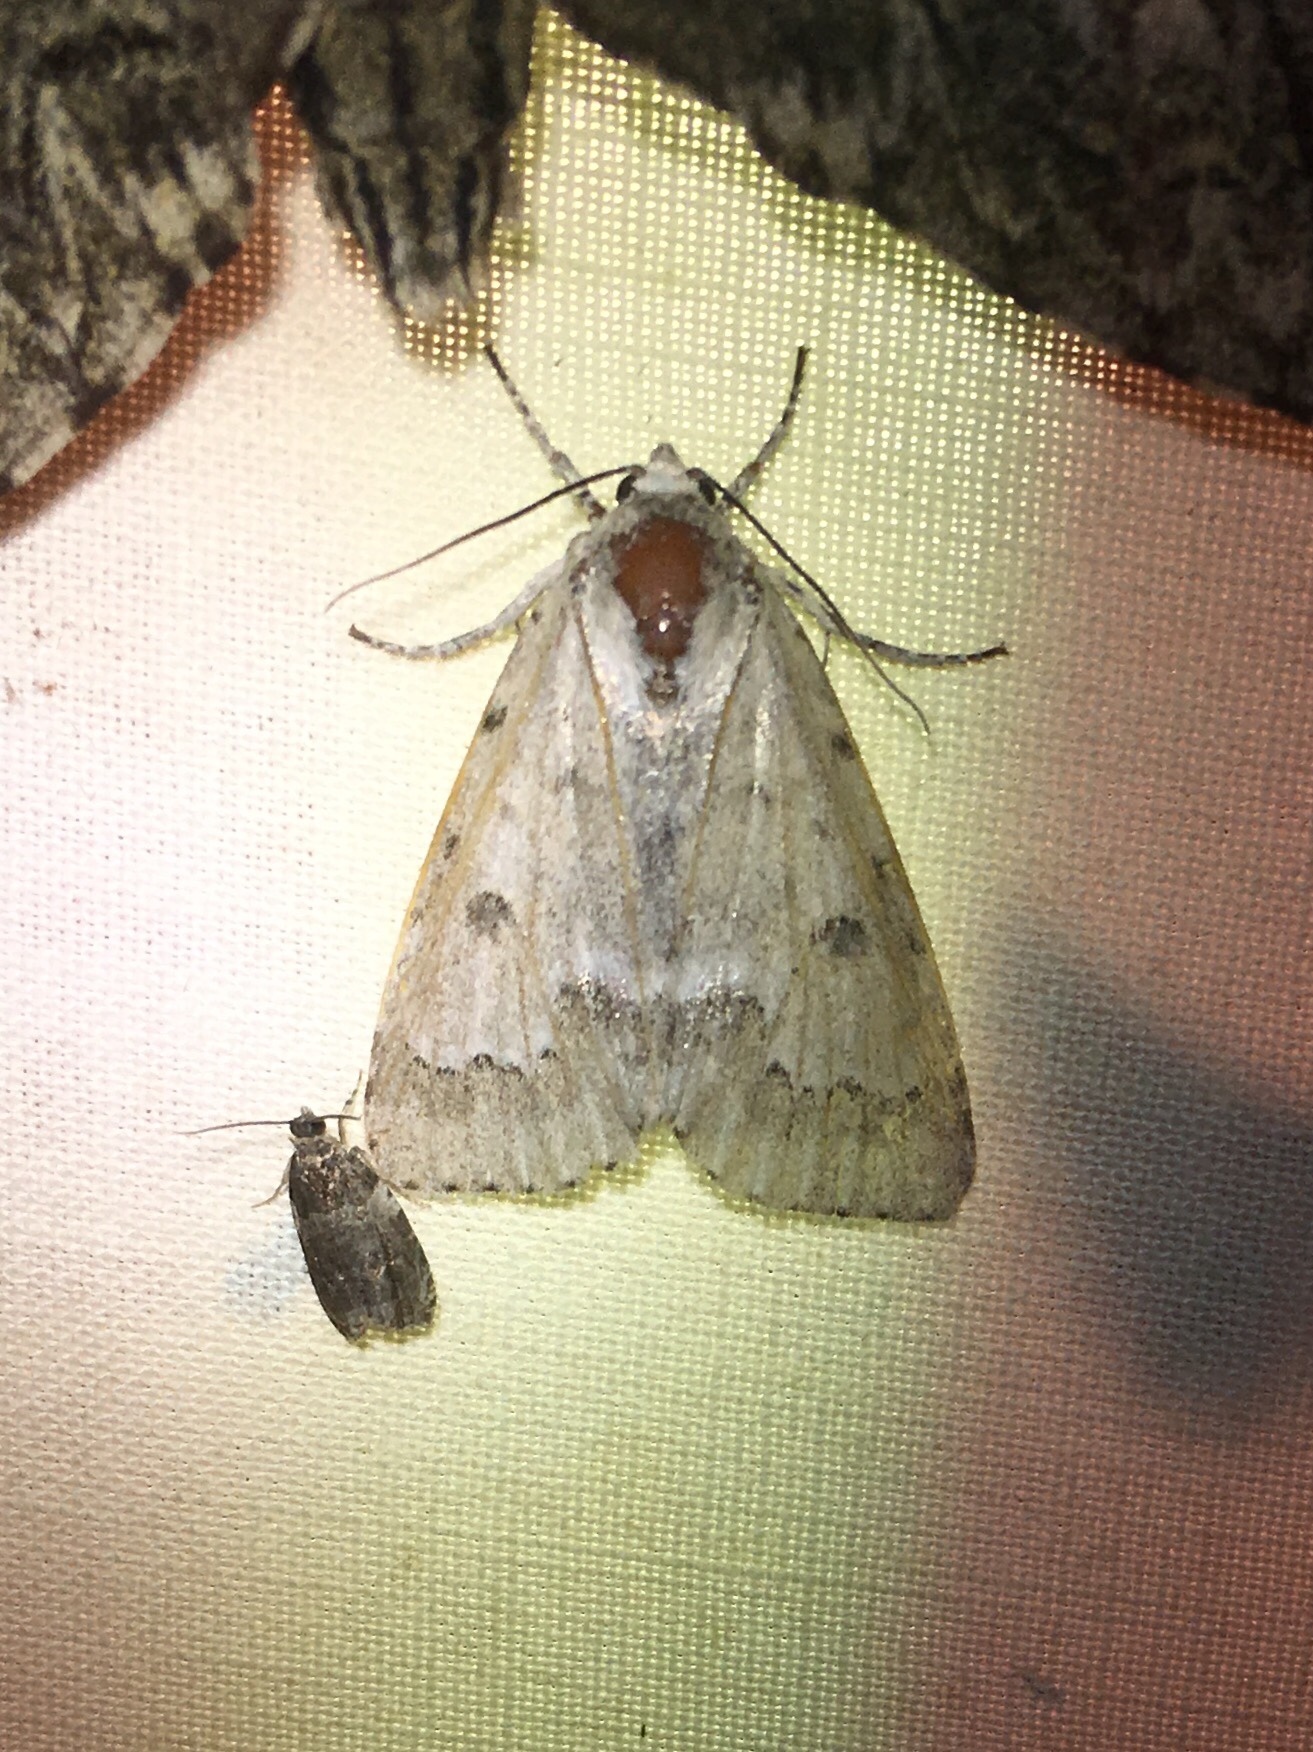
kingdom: Animalia
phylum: Arthropoda
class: Insecta
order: Lepidoptera
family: Noctuidae
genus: Acronicta
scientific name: Acronicta innotata
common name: Unmarked dagger
